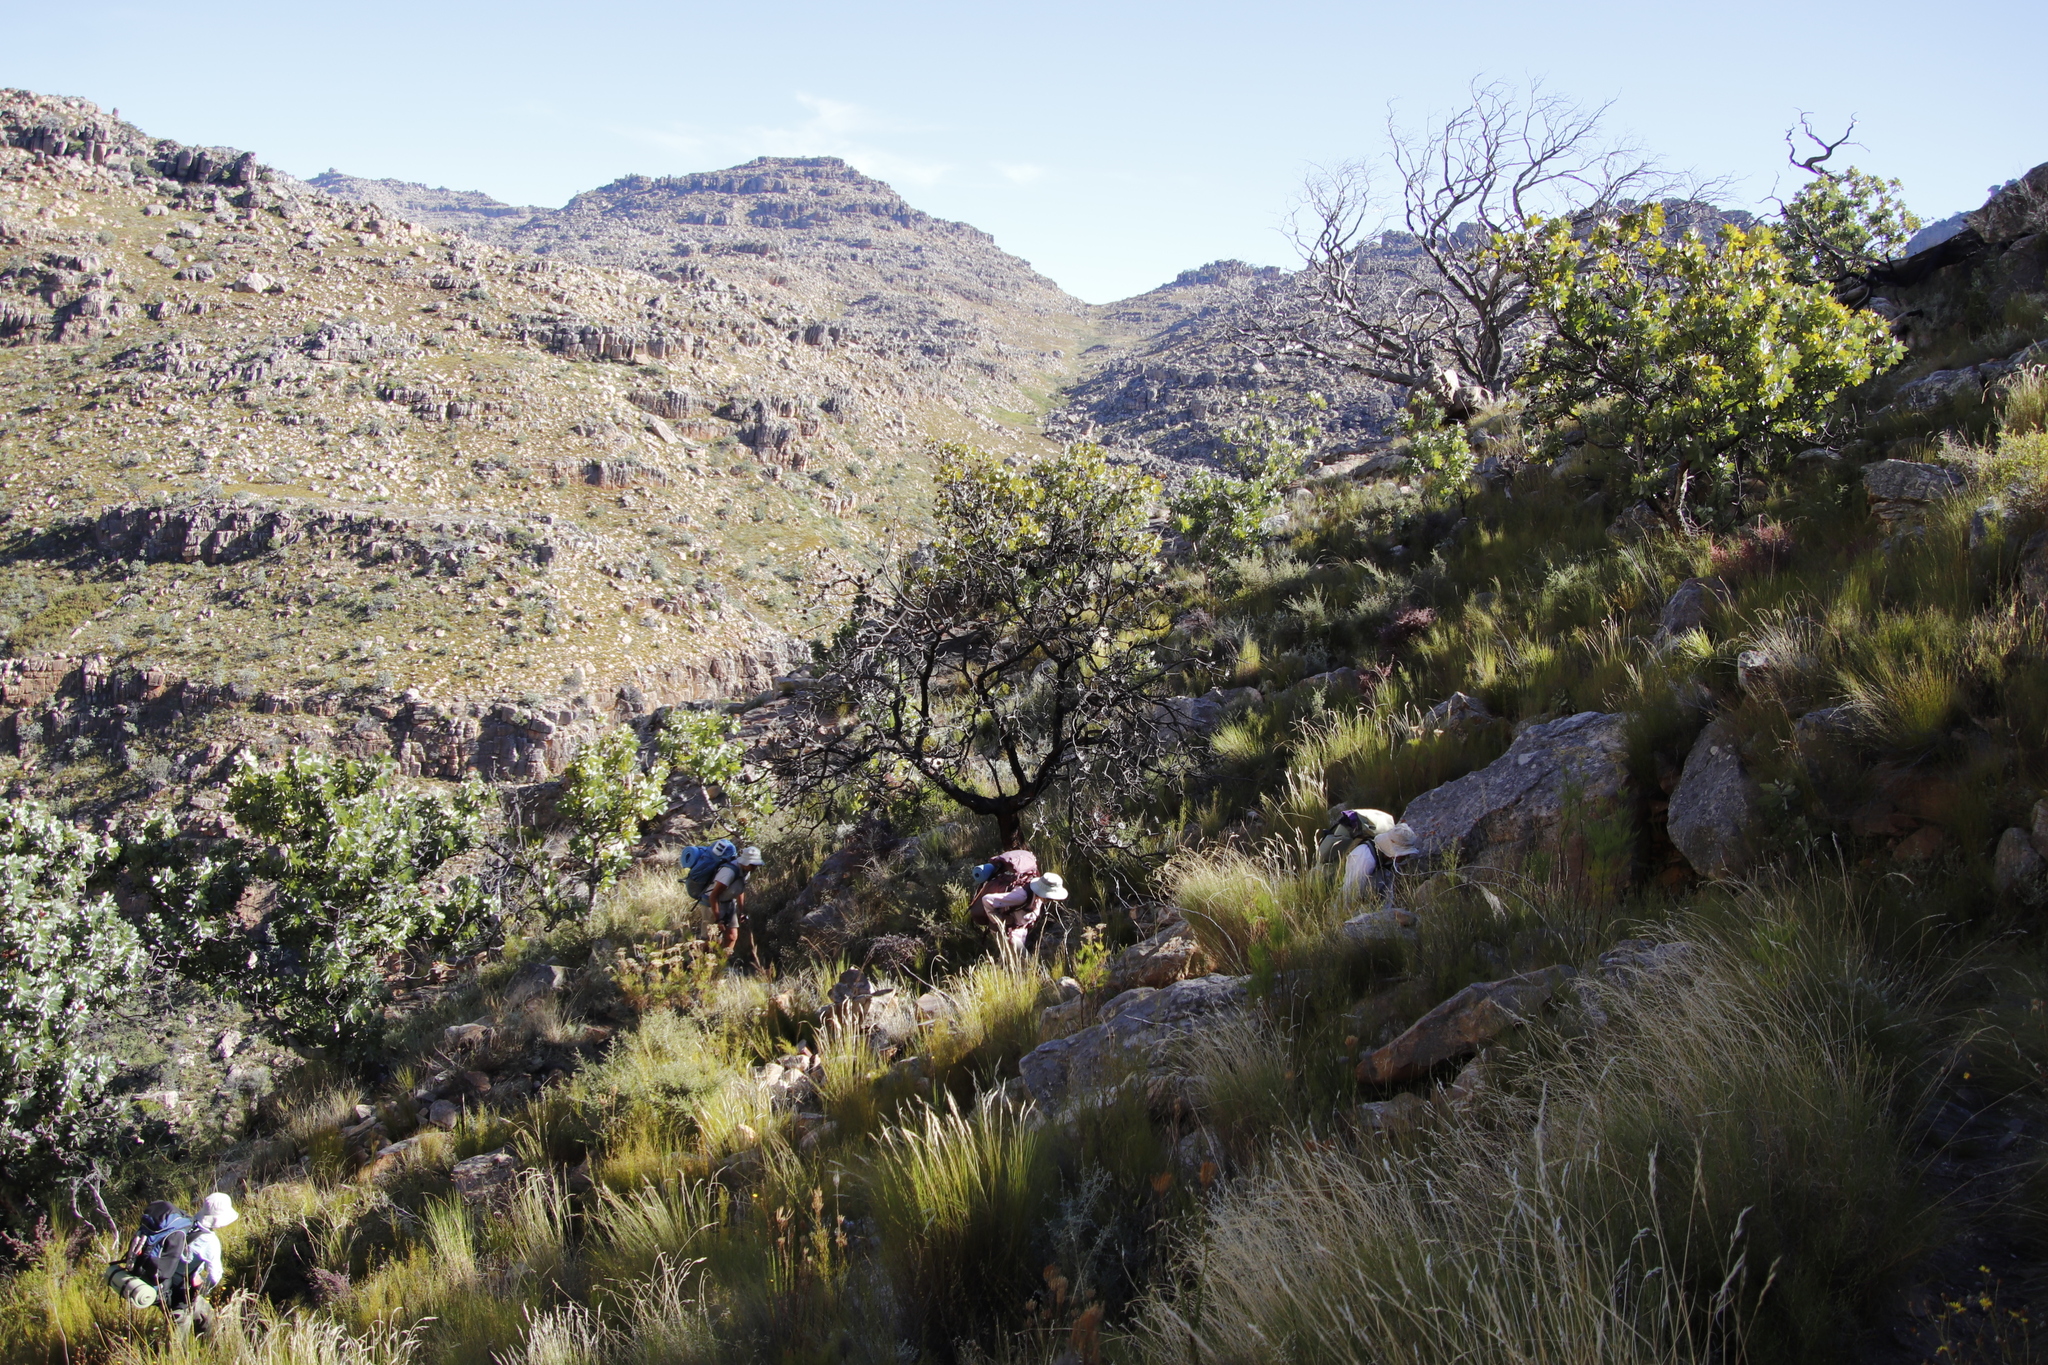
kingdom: Plantae
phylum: Tracheophyta
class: Magnoliopsida
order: Proteales
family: Proteaceae
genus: Protea
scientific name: Protea nitida
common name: Tree protea
